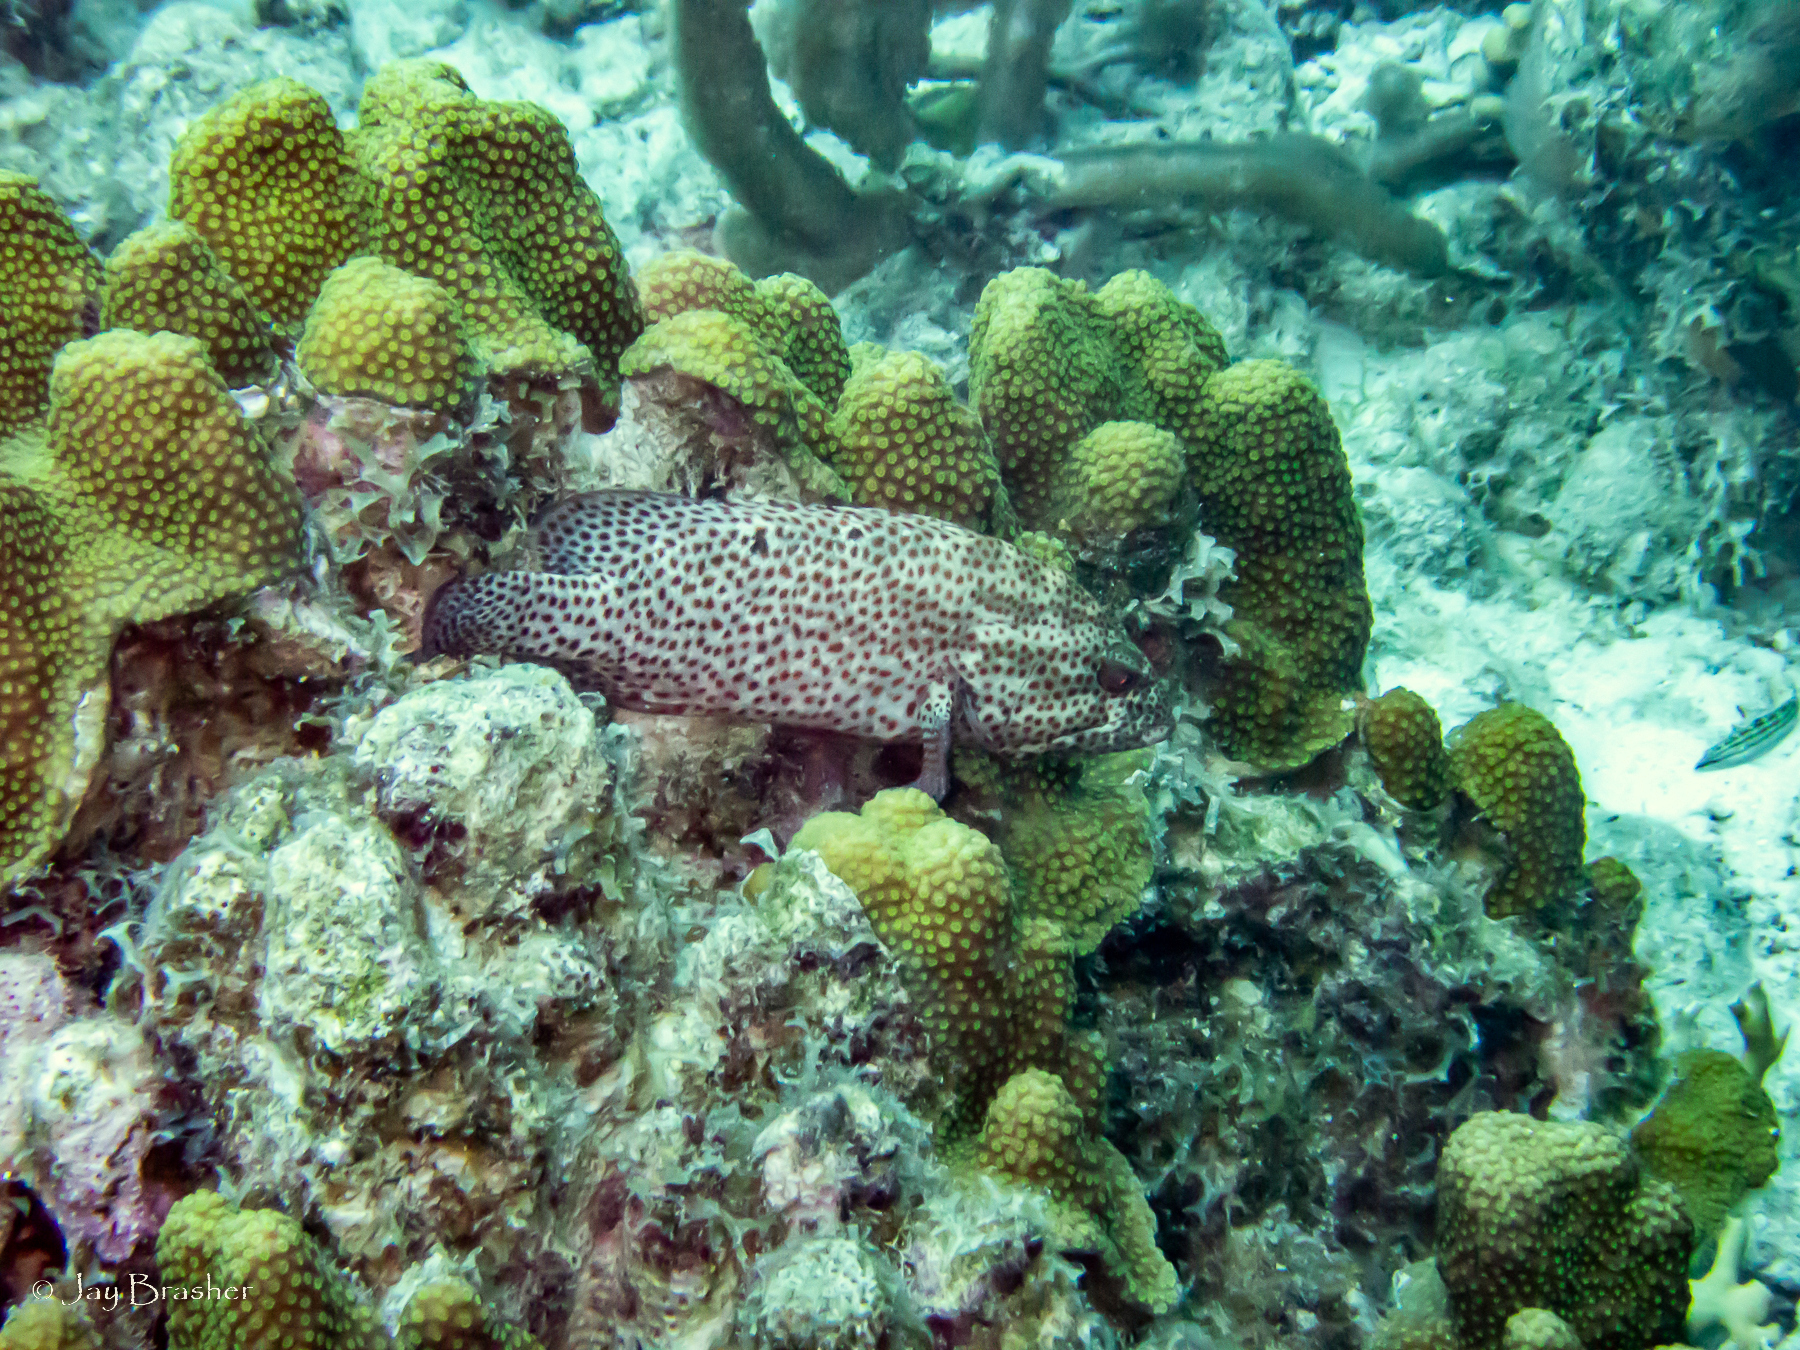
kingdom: Animalia
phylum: Cnidaria
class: Anthozoa
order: Scleractinia
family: Merulinidae
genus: Orbicella
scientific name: Orbicella faveolata
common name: Mountainous star coral
